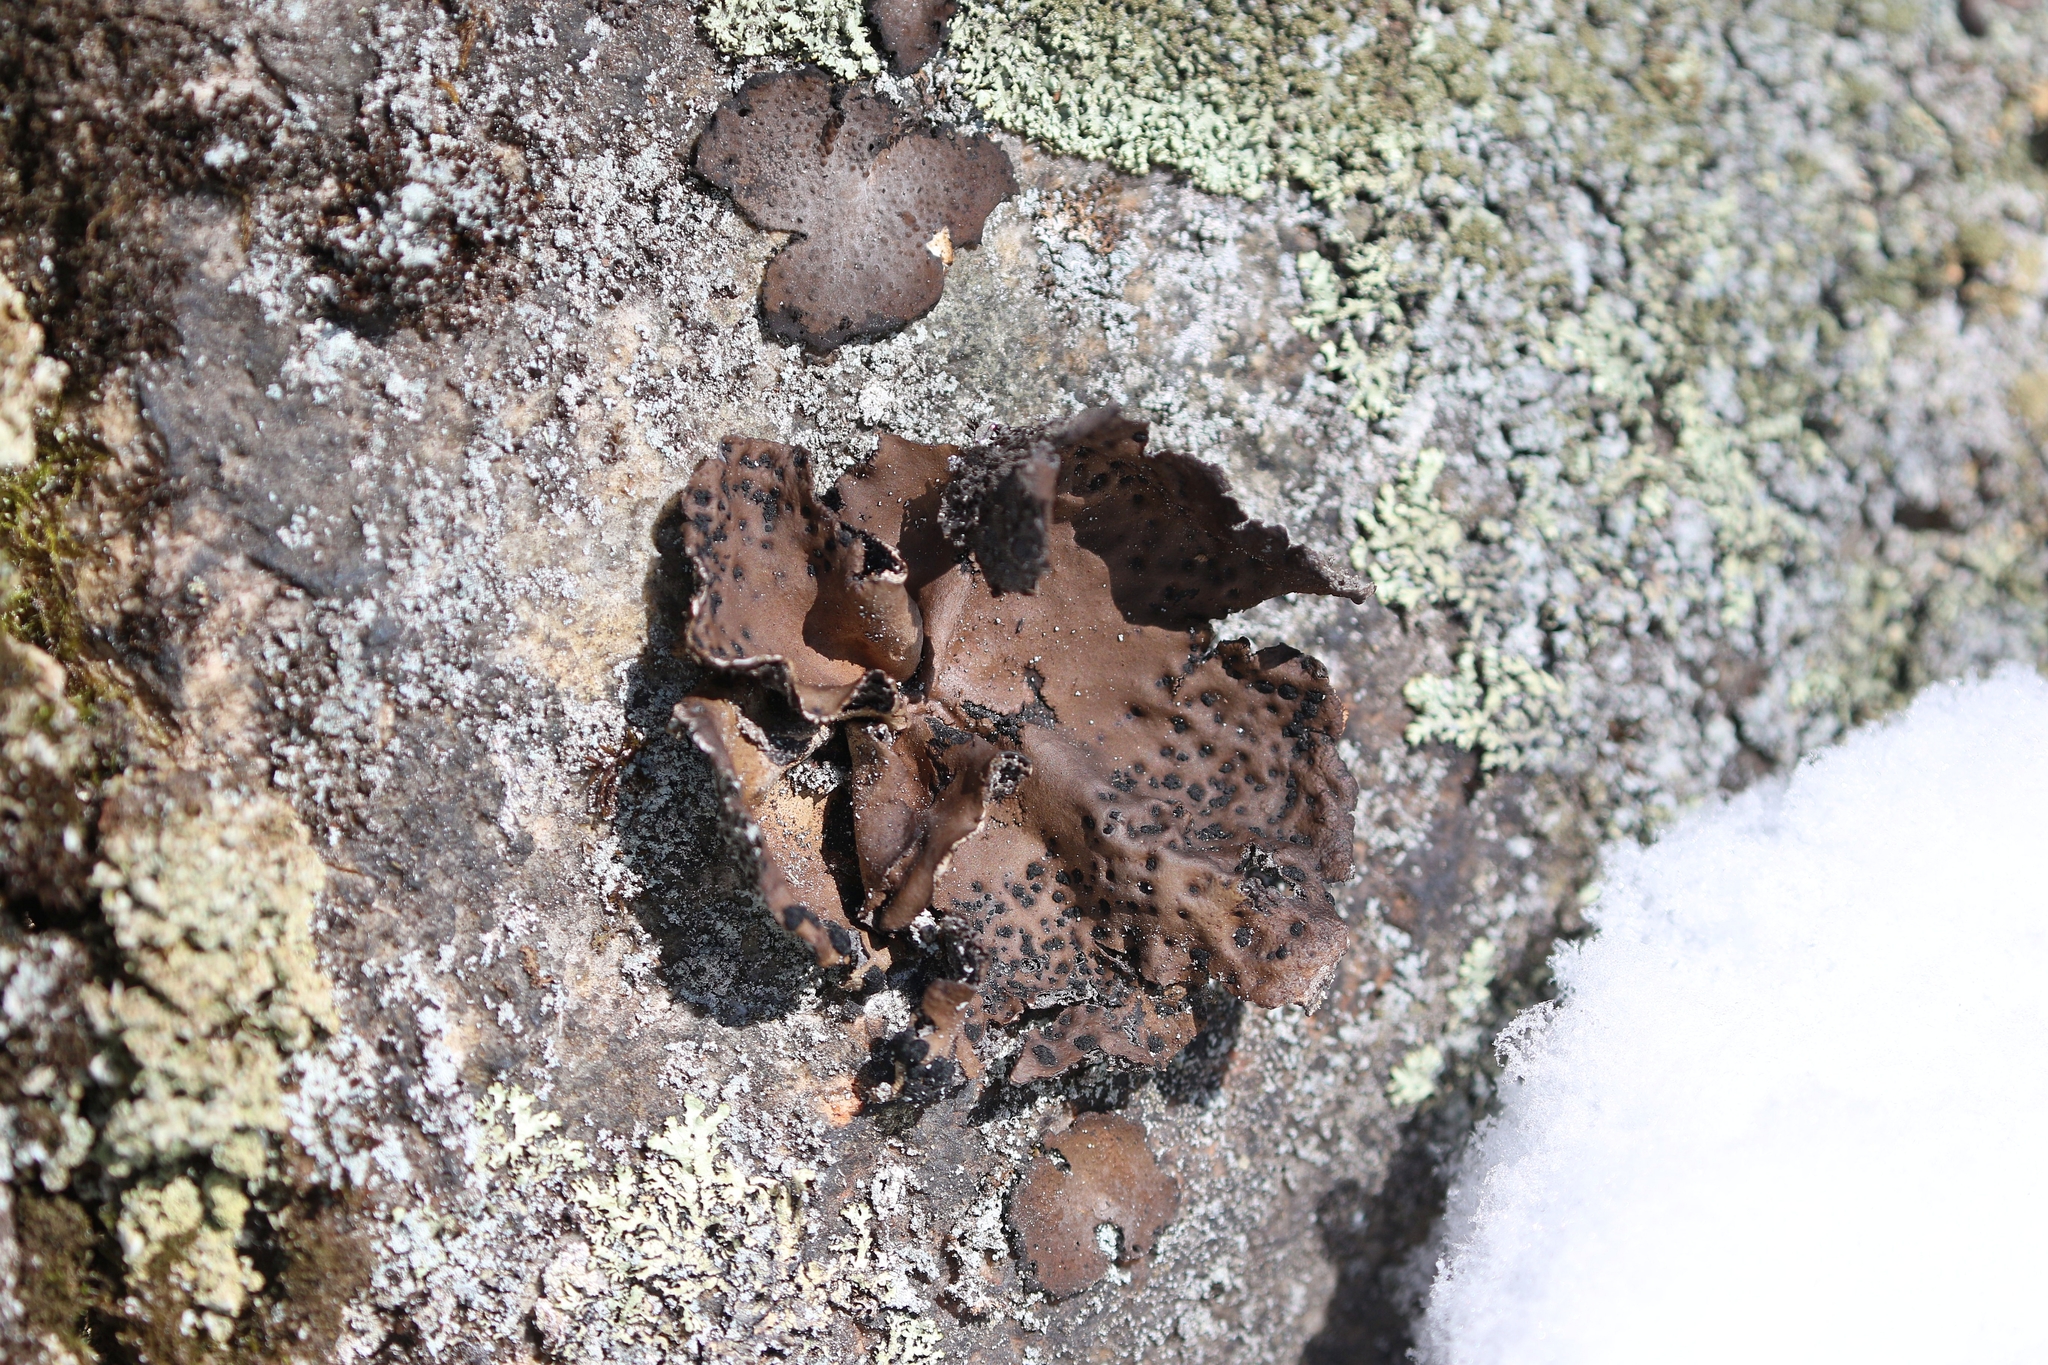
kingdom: Fungi
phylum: Ascomycota
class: Lecanoromycetes
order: Umbilicariales
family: Umbilicariaceae
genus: Umbilicaria
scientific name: Umbilicaria muhlenbergii
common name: Lesser rocktripe
